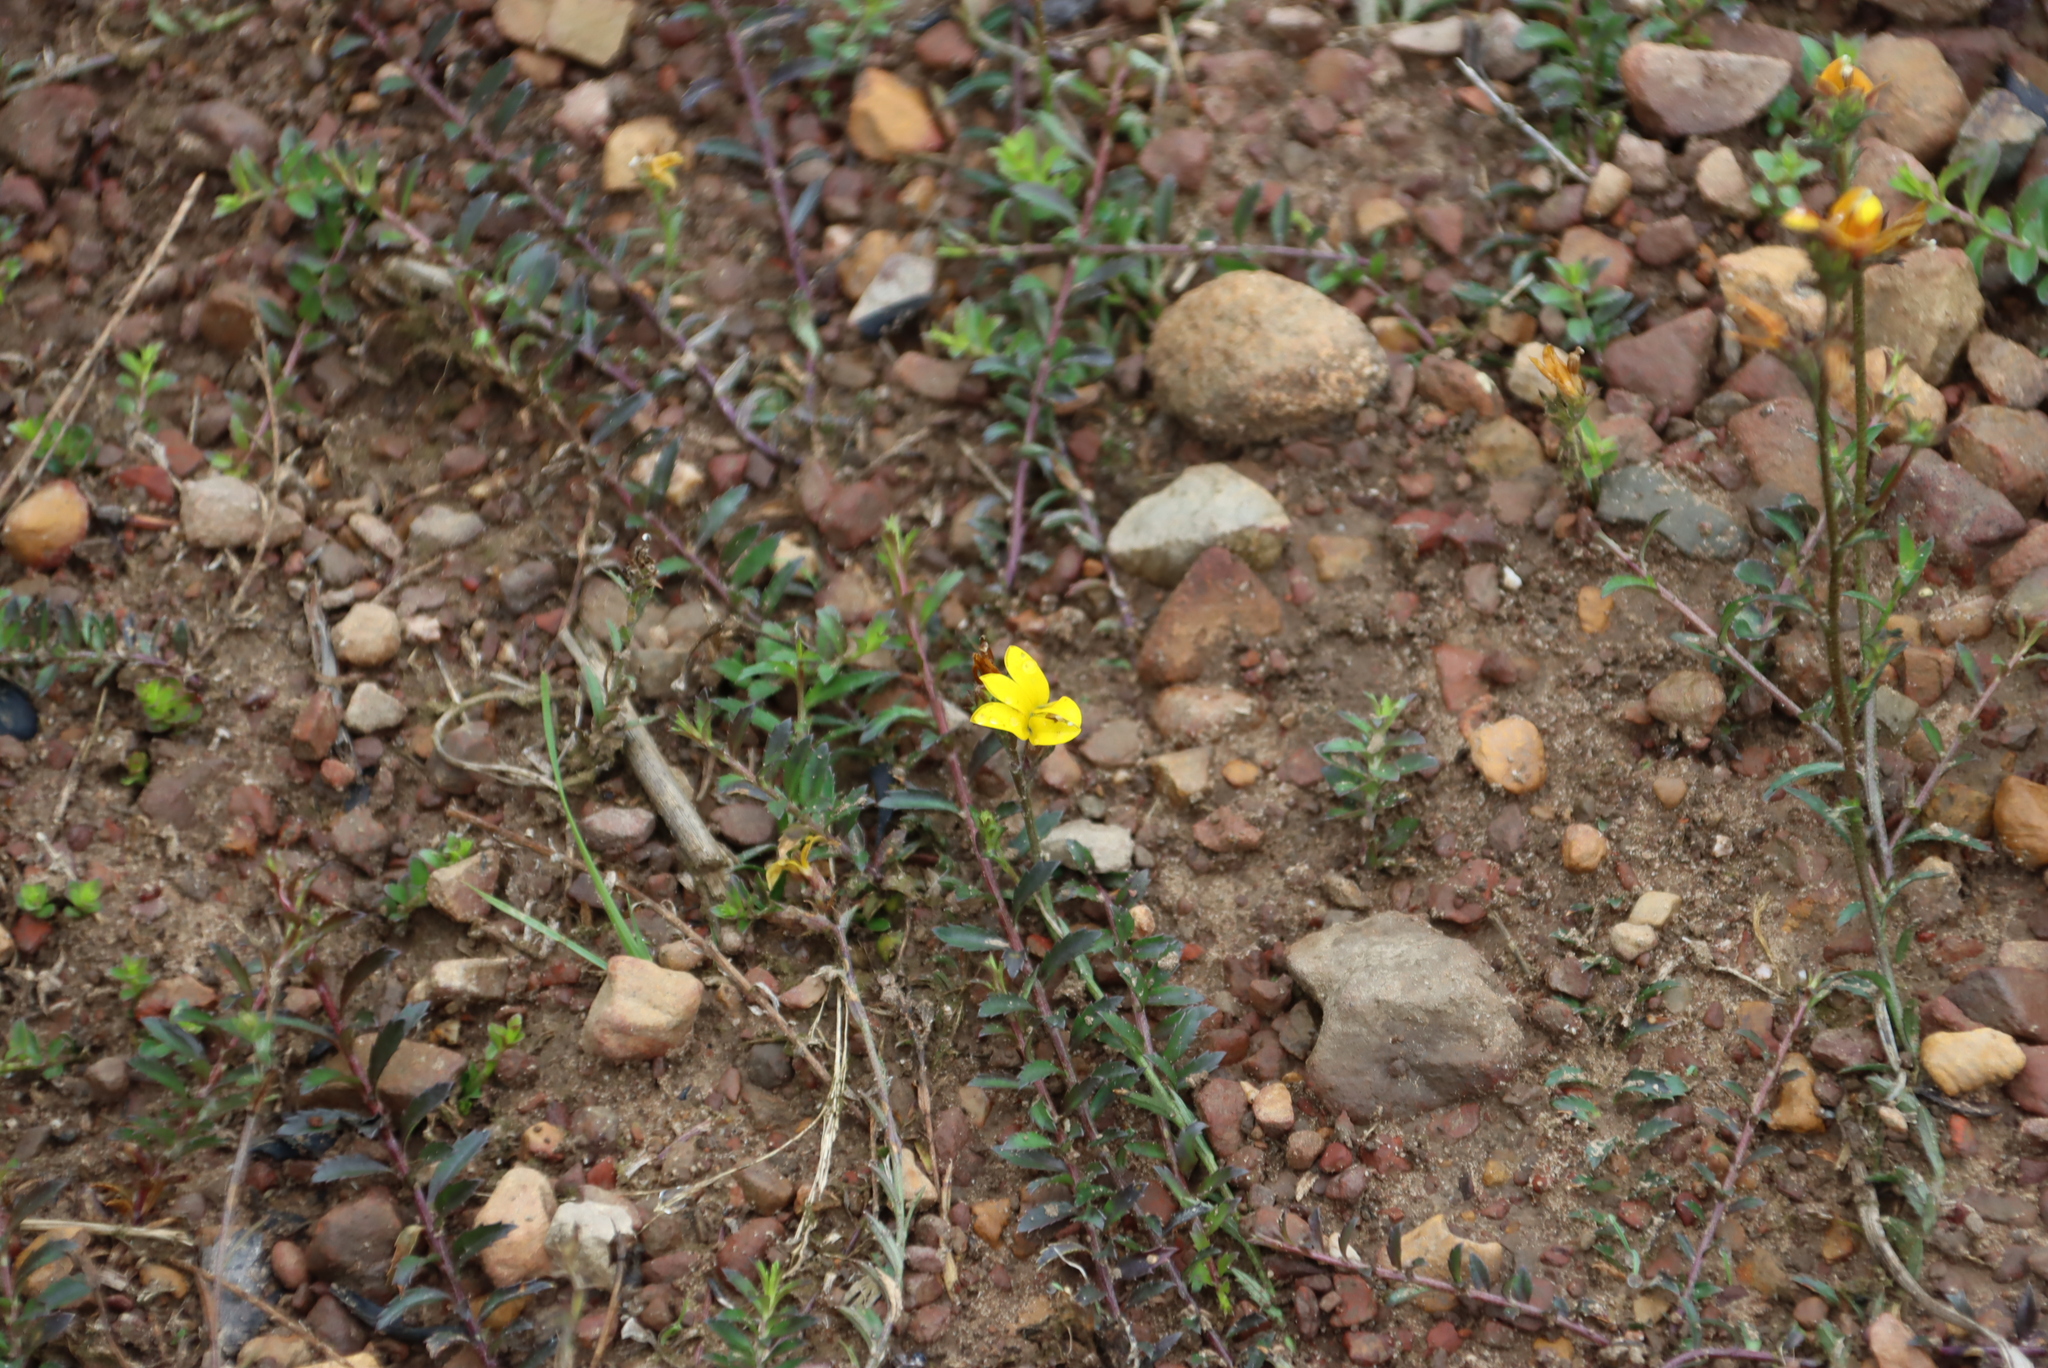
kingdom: Plantae
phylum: Tracheophyta
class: Magnoliopsida
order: Asterales
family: Campanulaceae
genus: Monopsis
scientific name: Monopsis lutea
